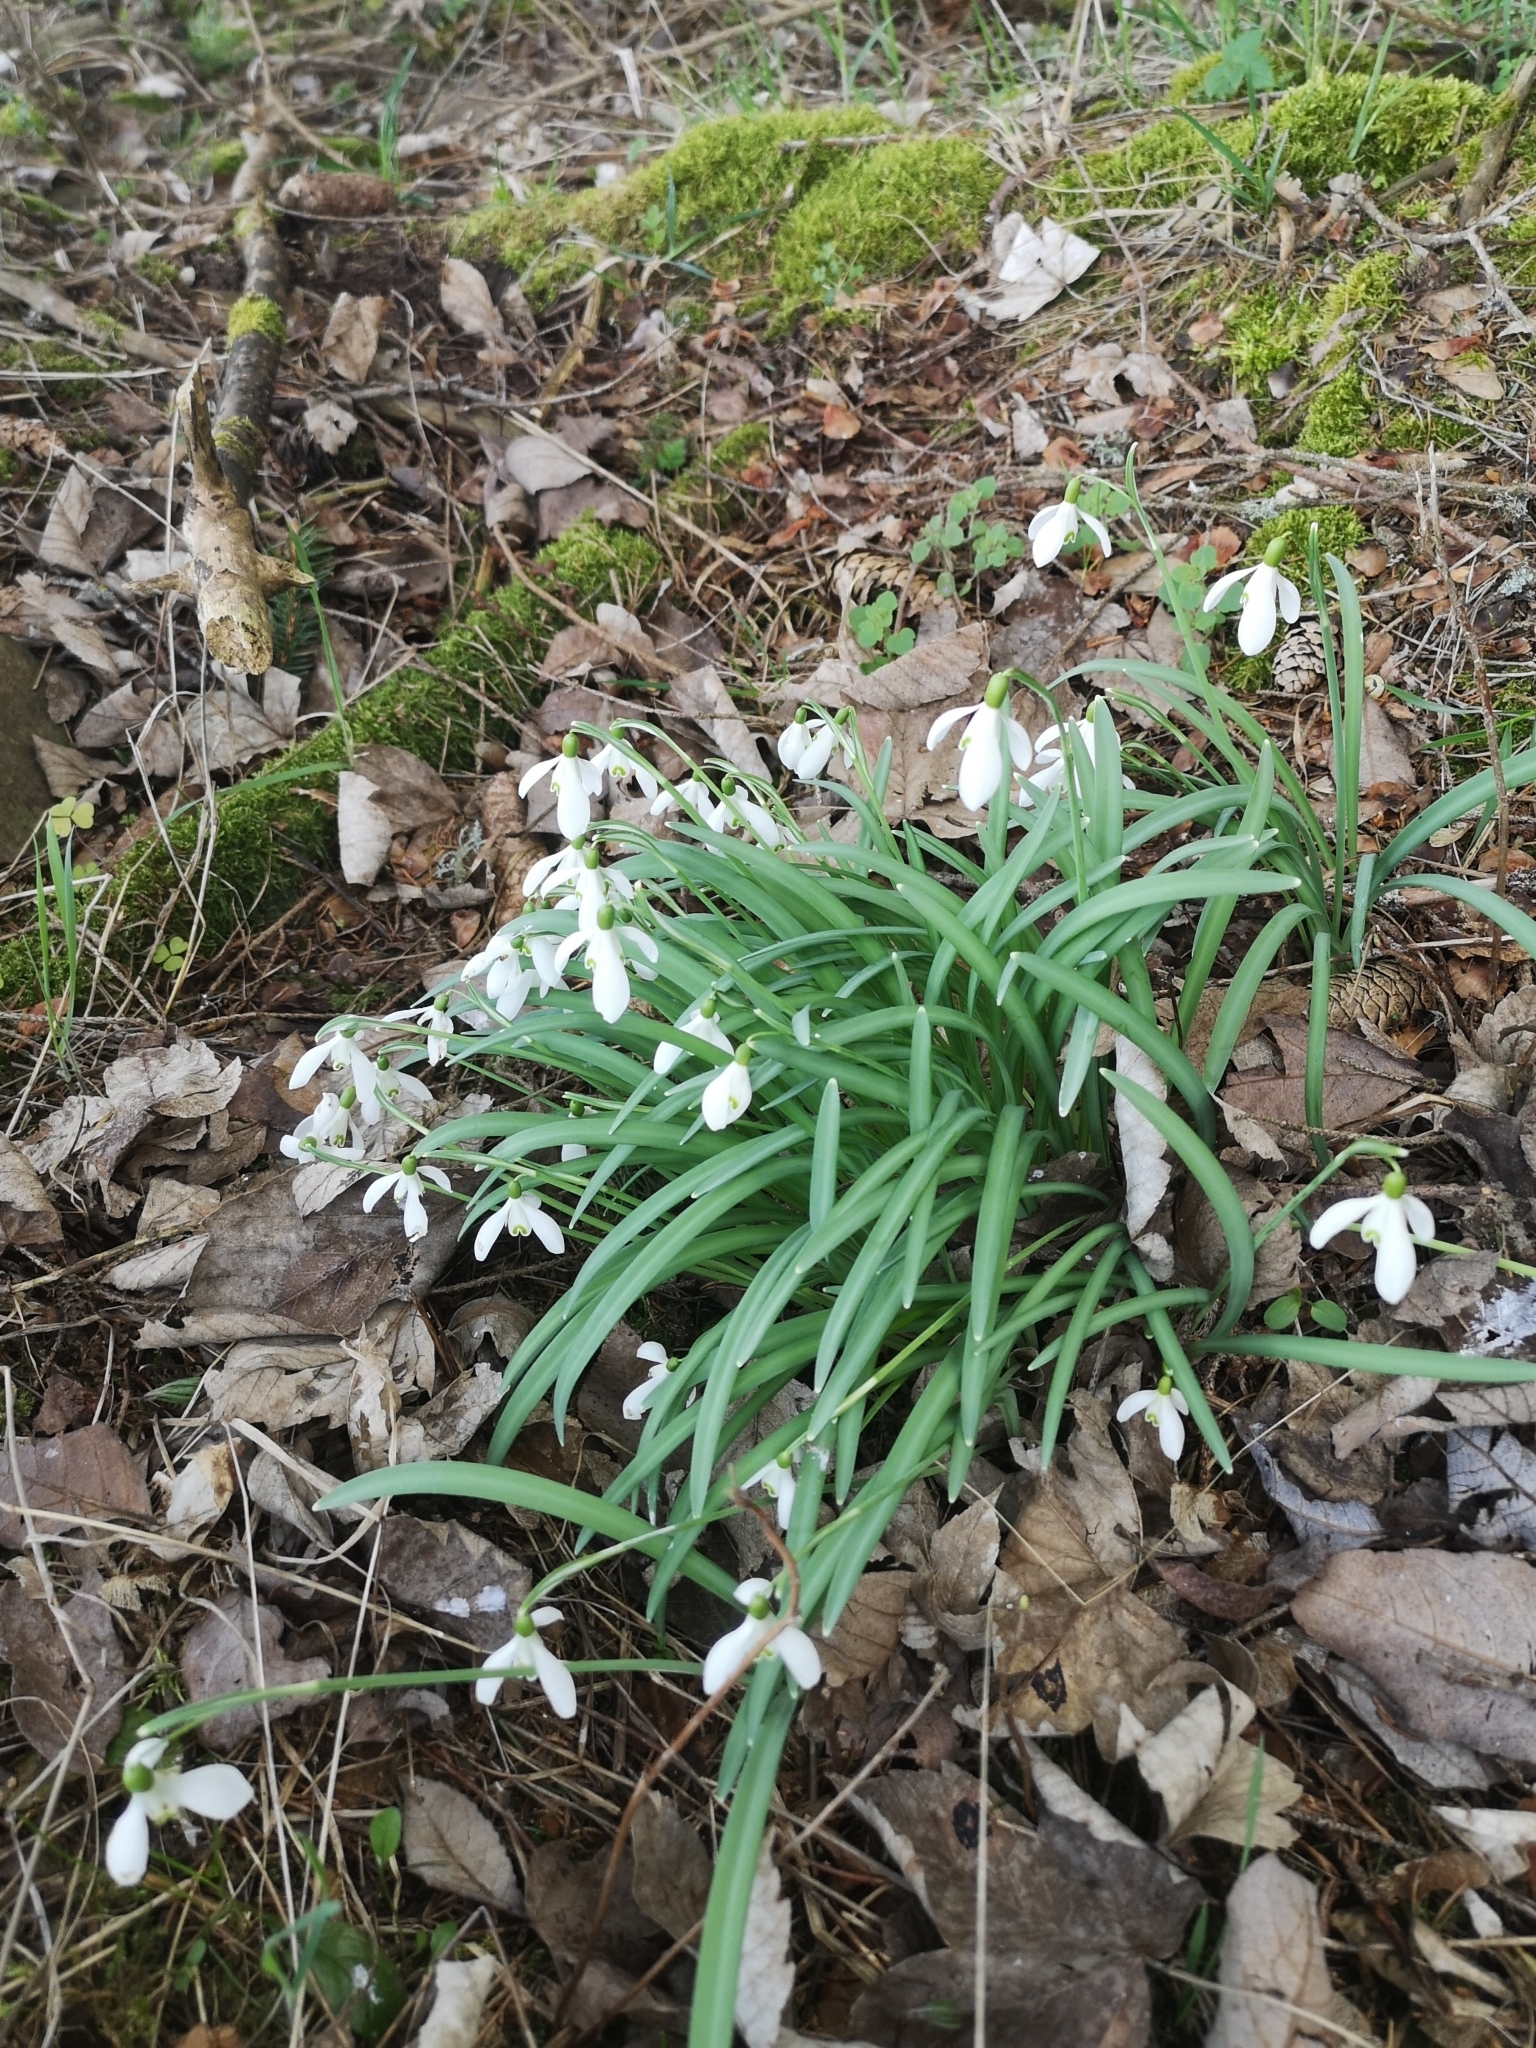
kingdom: Plantae
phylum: Tracheophyta
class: Liliopsida
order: Asparagales
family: Amaryllidaceae
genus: Galanthus
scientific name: Galanthus nivalis
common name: Snowdrop
